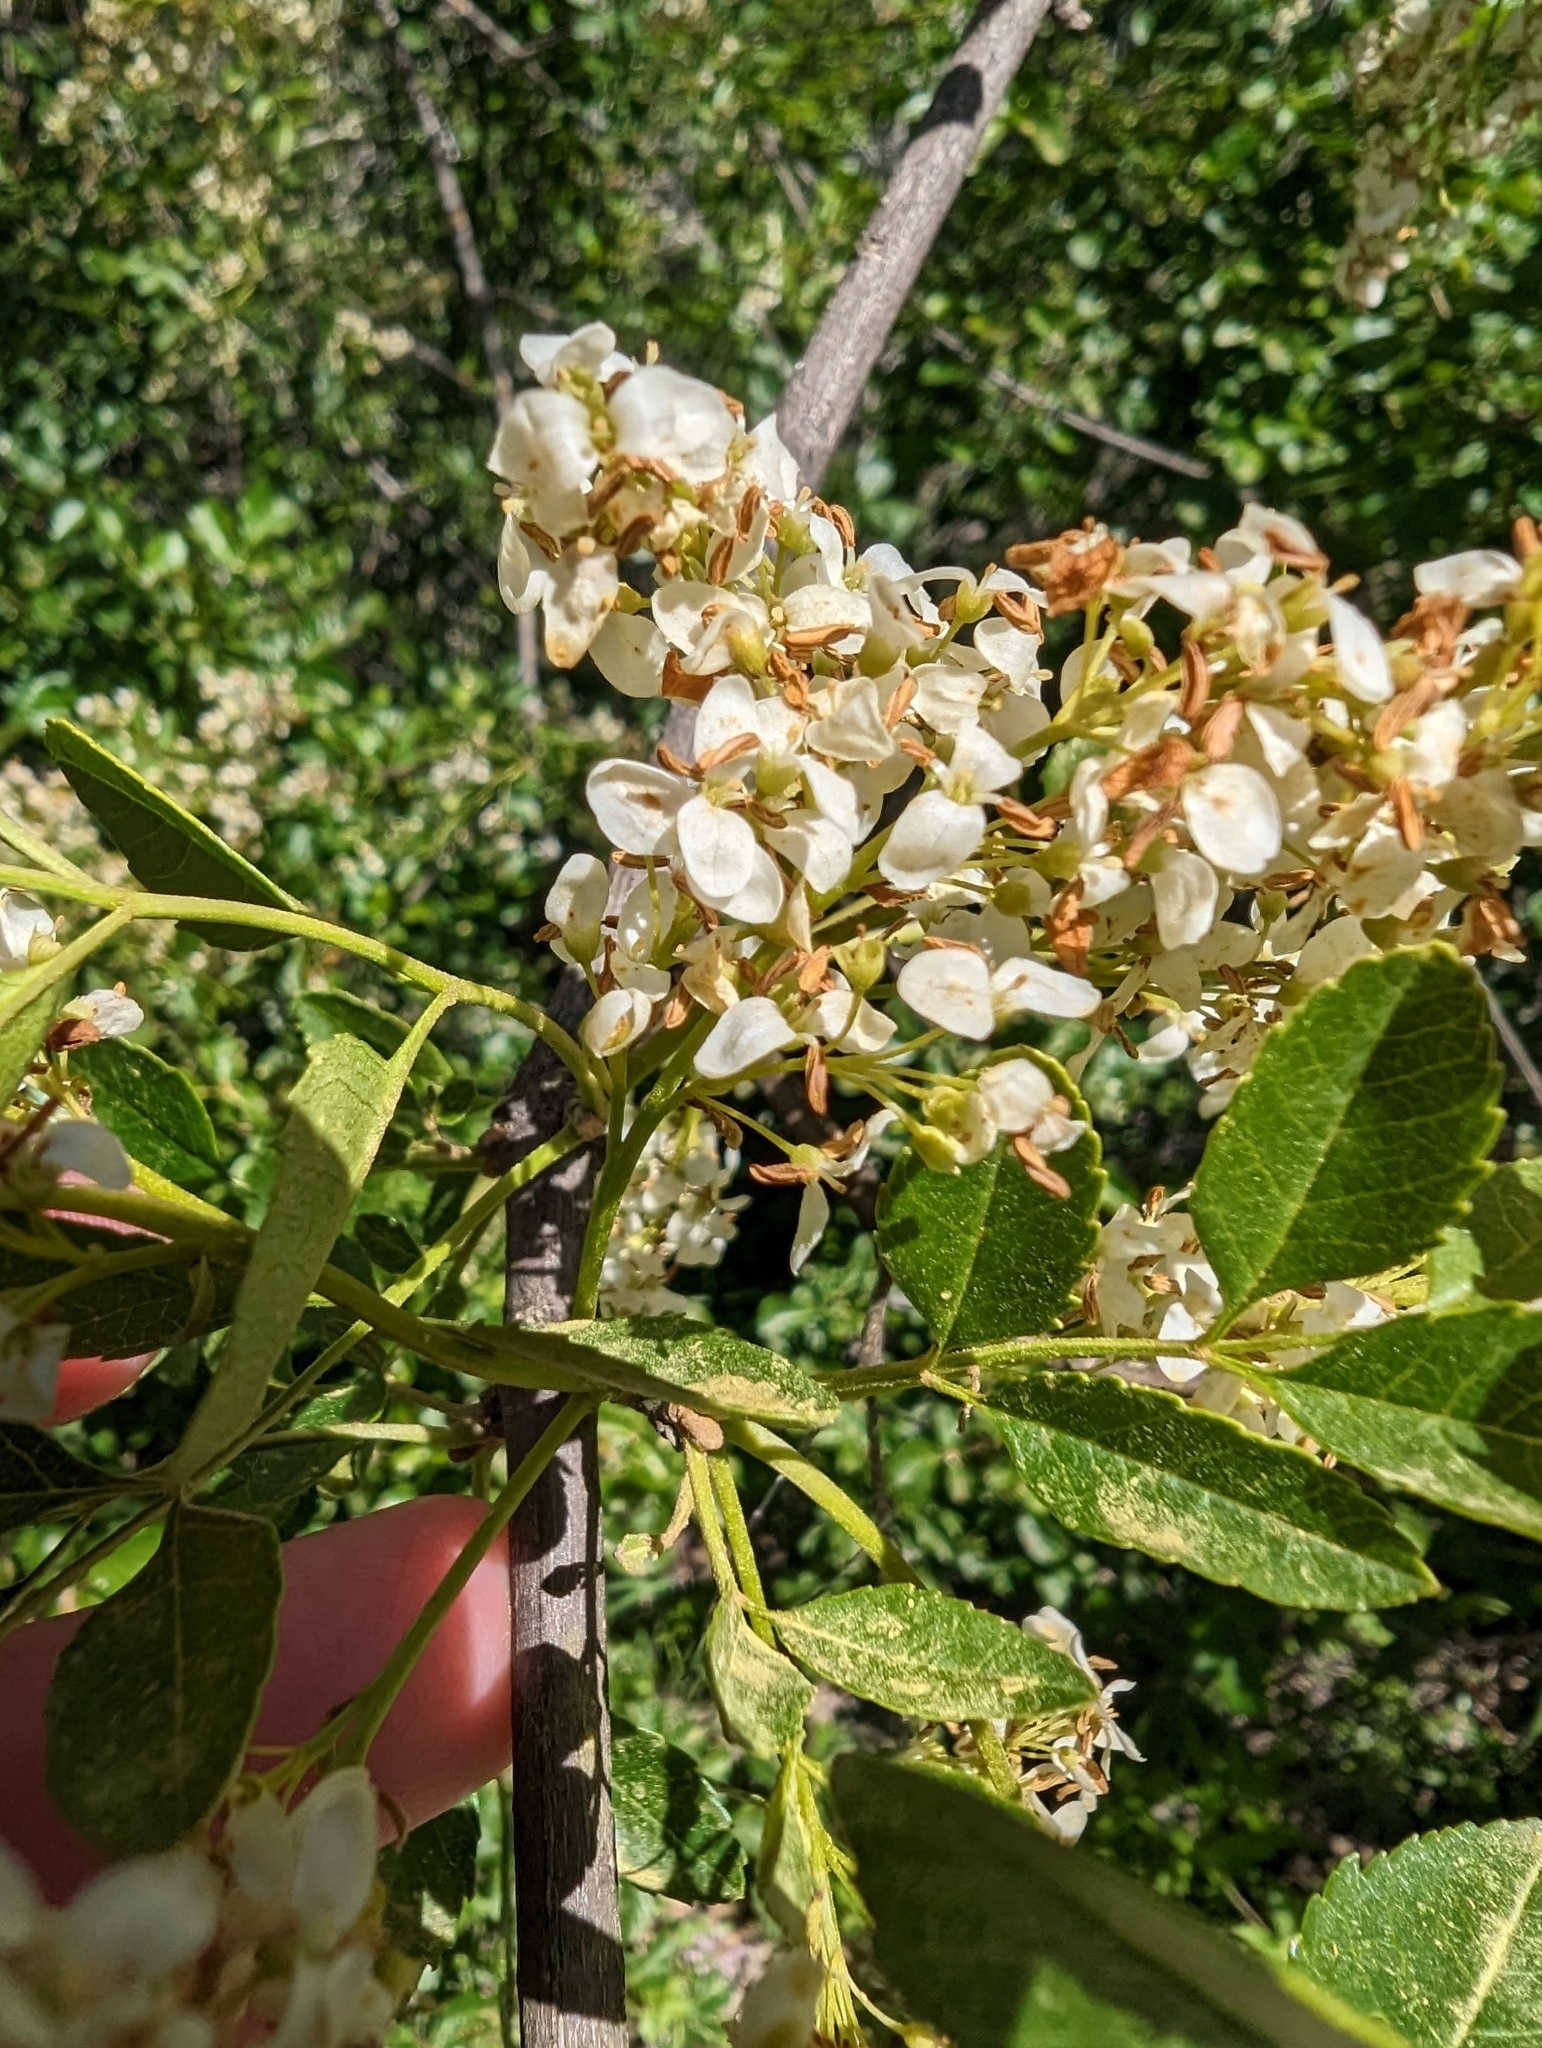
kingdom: Plantae
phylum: Tracheophyta
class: Magnoliopsida
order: Lamiales
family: Oleaceae
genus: Fraxinus
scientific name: Fraxinus dipetala
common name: California ash
